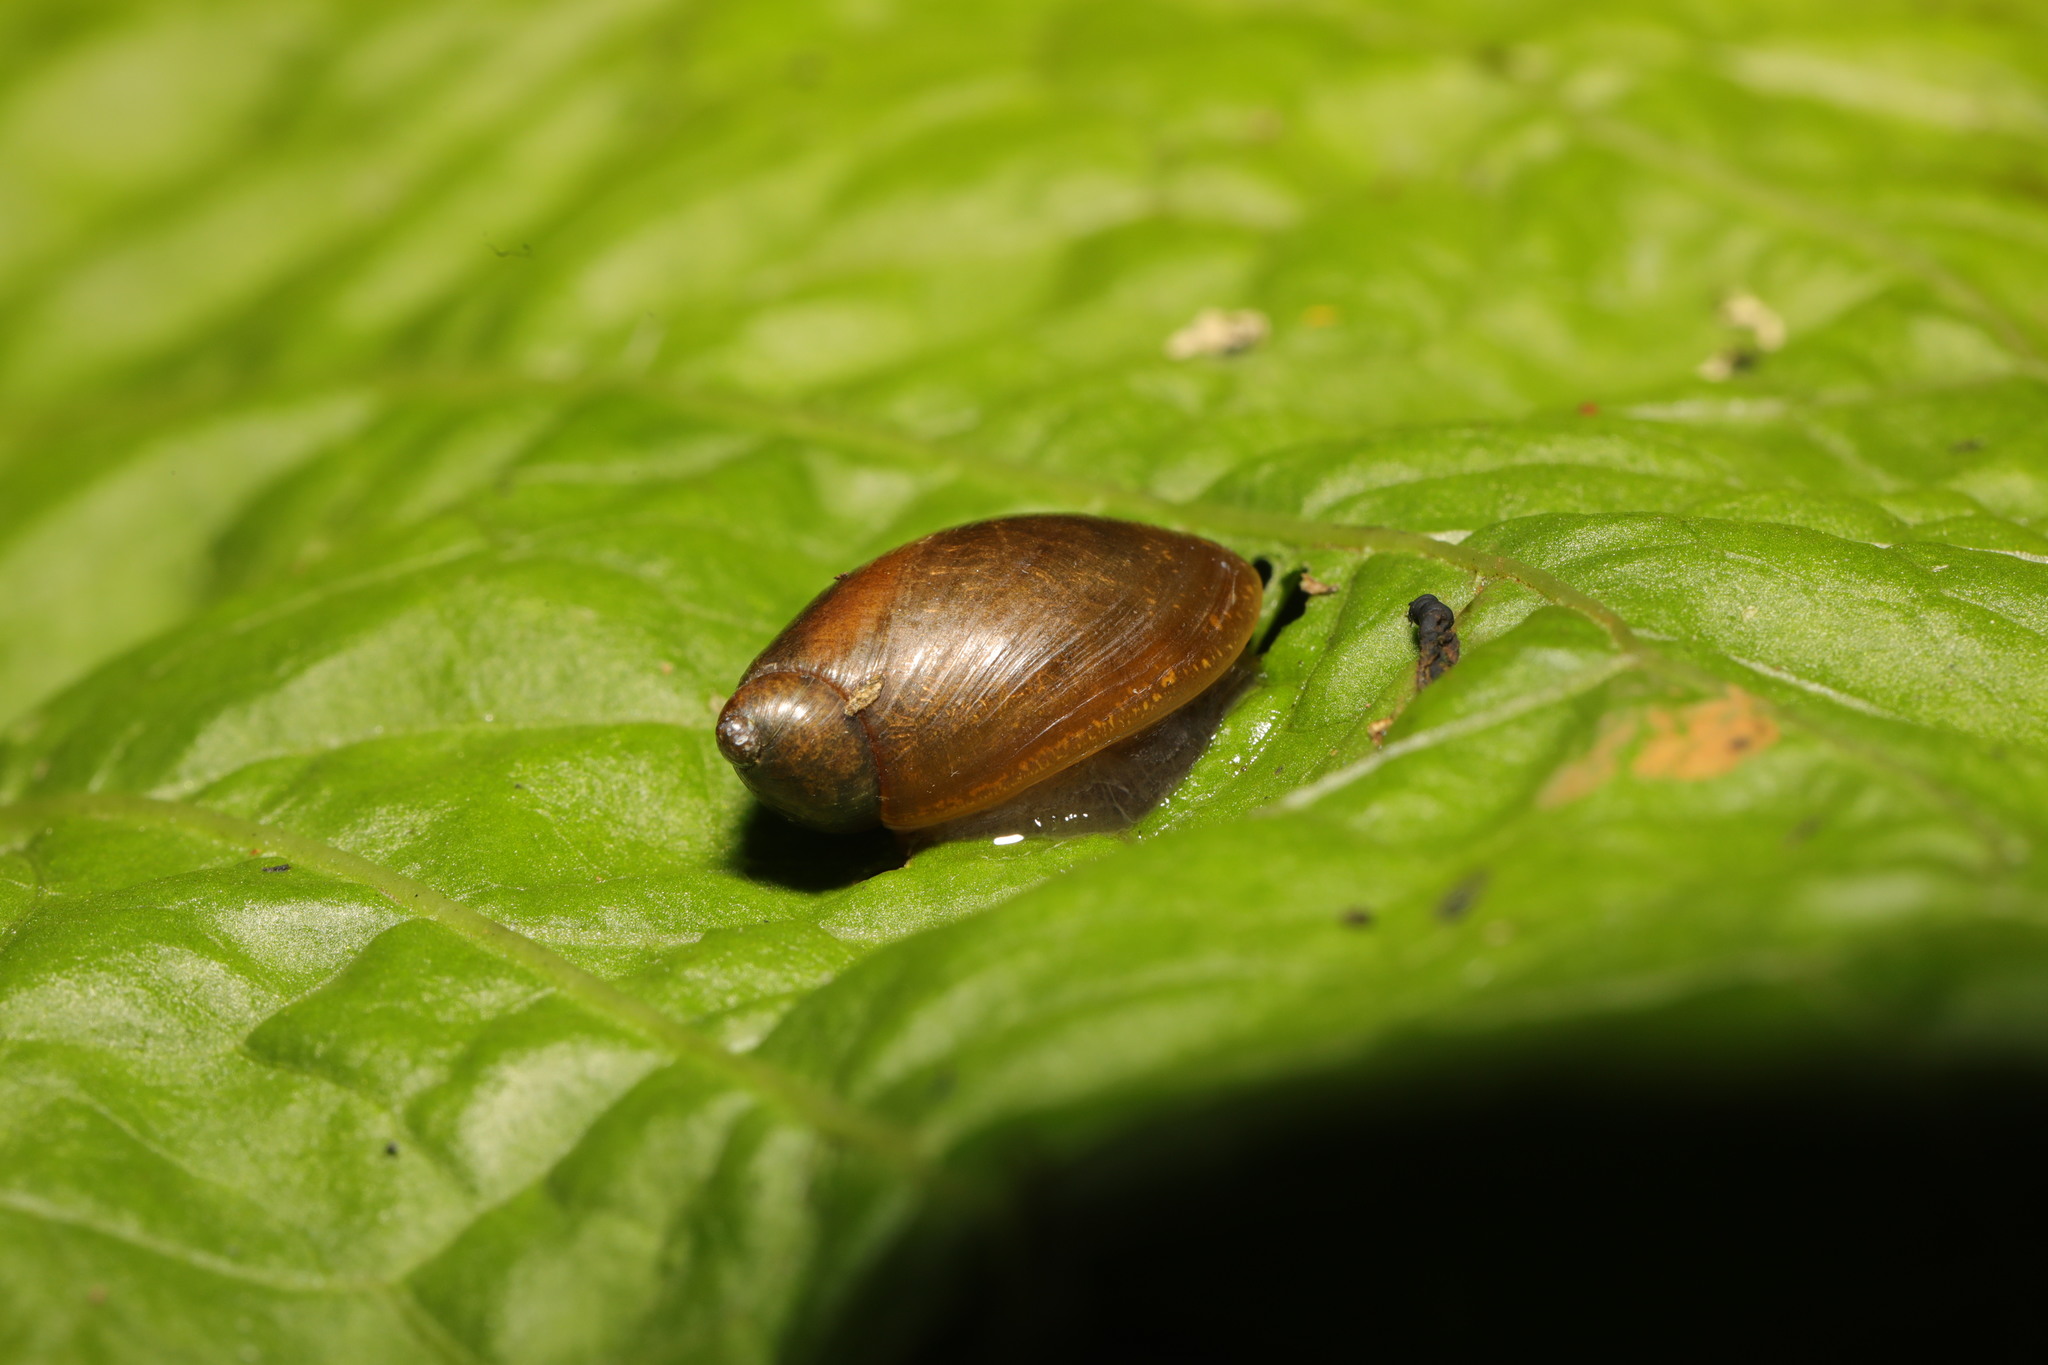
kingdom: Animalia
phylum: Mollusca
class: Gastropoda
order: Stylommatophora
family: Succineidae
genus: Succinea
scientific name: Succinea putris
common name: European ambersnail
